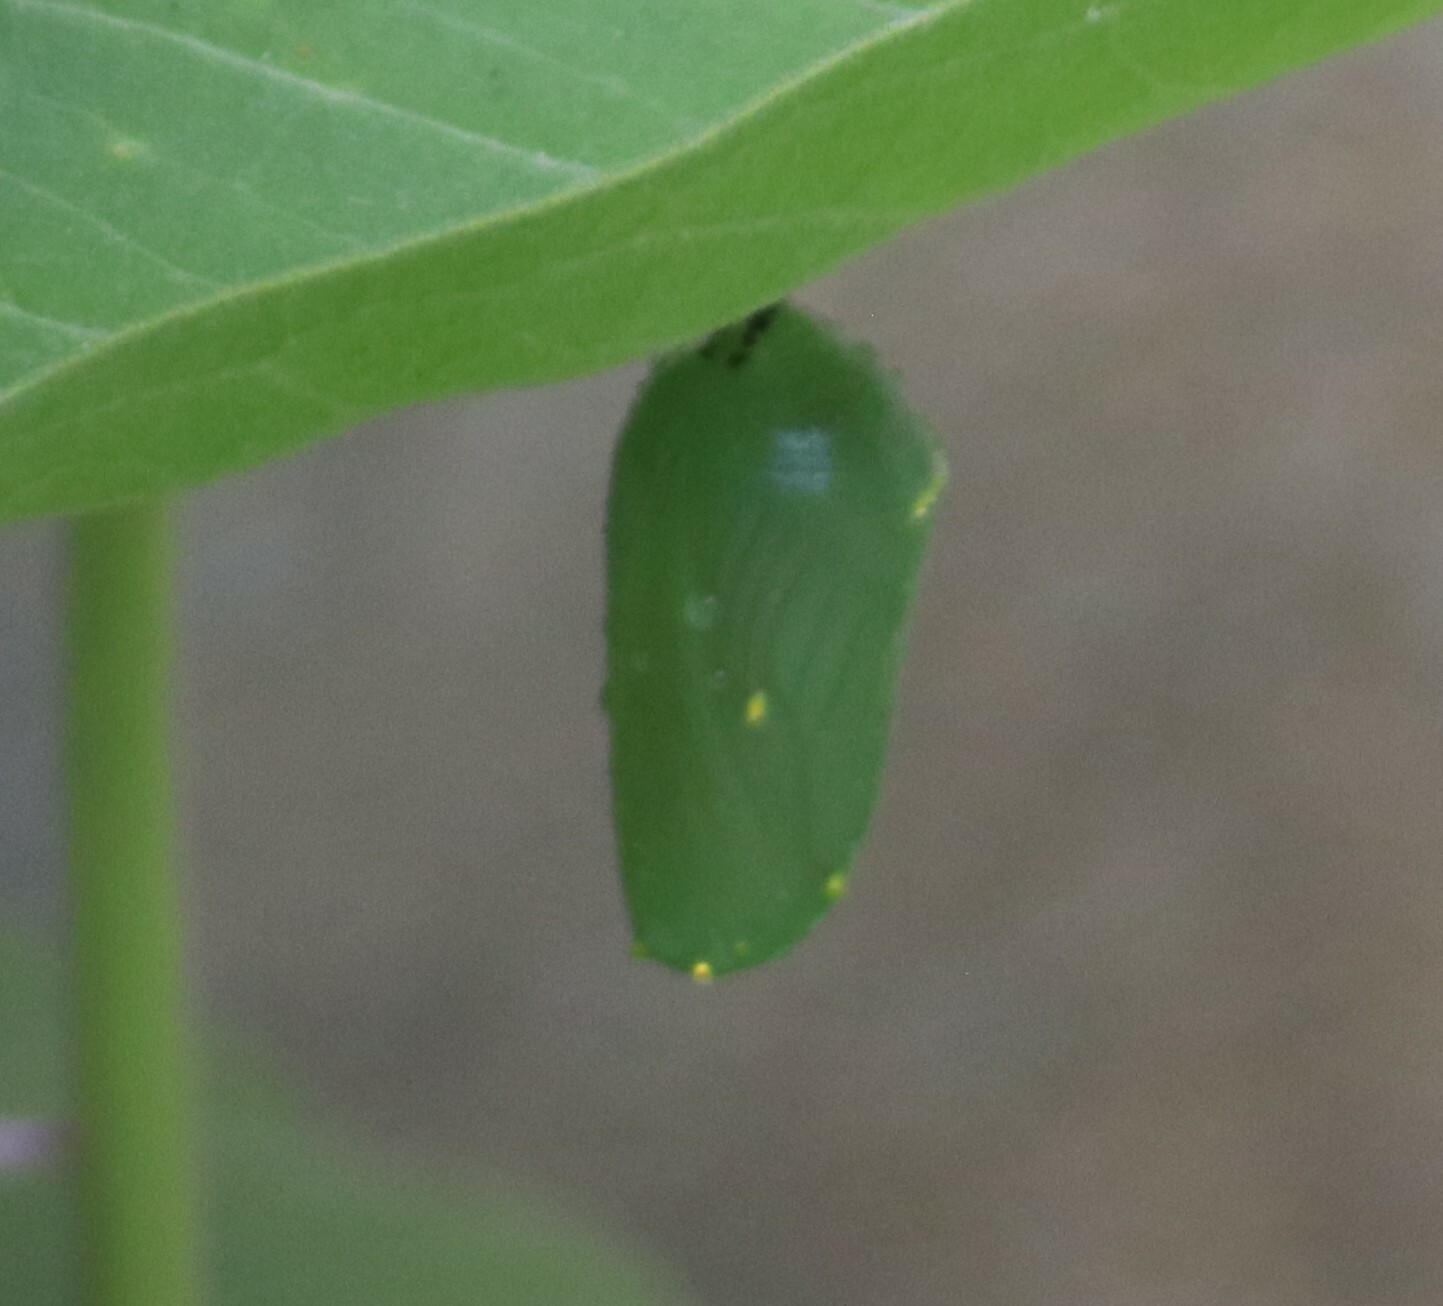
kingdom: Animalia
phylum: Arthropoda
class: Insecta
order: Lepidoptera
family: Nymphalidae
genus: Danaus
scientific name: Danaus plexippus
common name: Monarch
